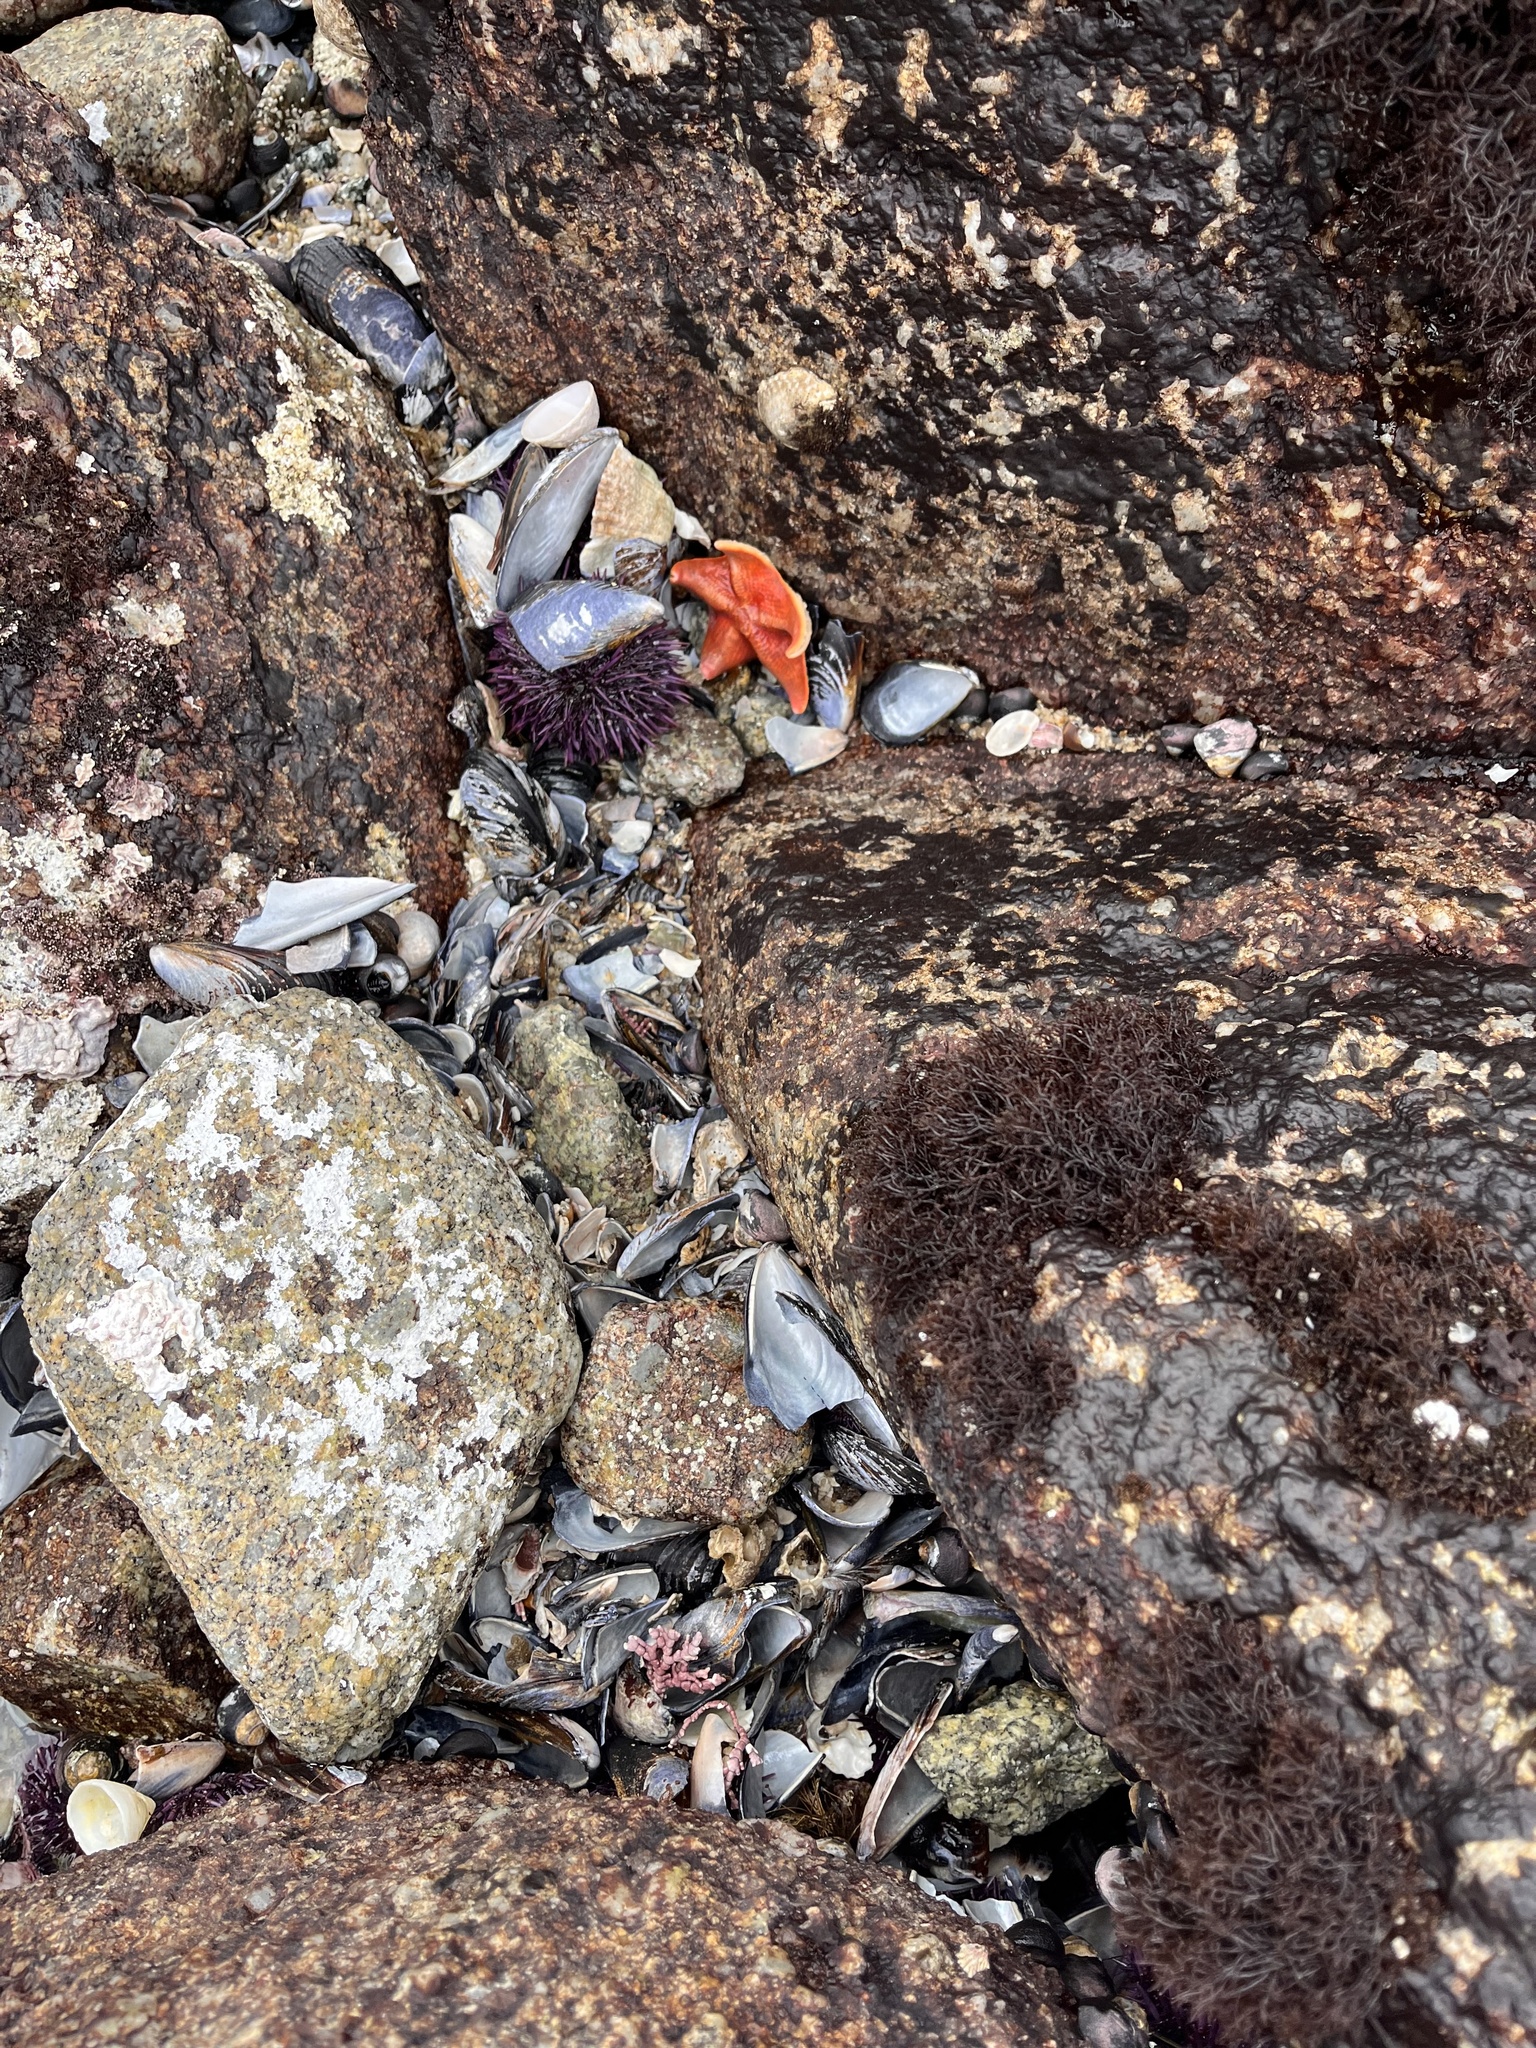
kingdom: Animalia
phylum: Echinodermata
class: Asteroidea
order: Valvatida
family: Asterinidae
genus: Patiria
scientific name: Patiria miniata
